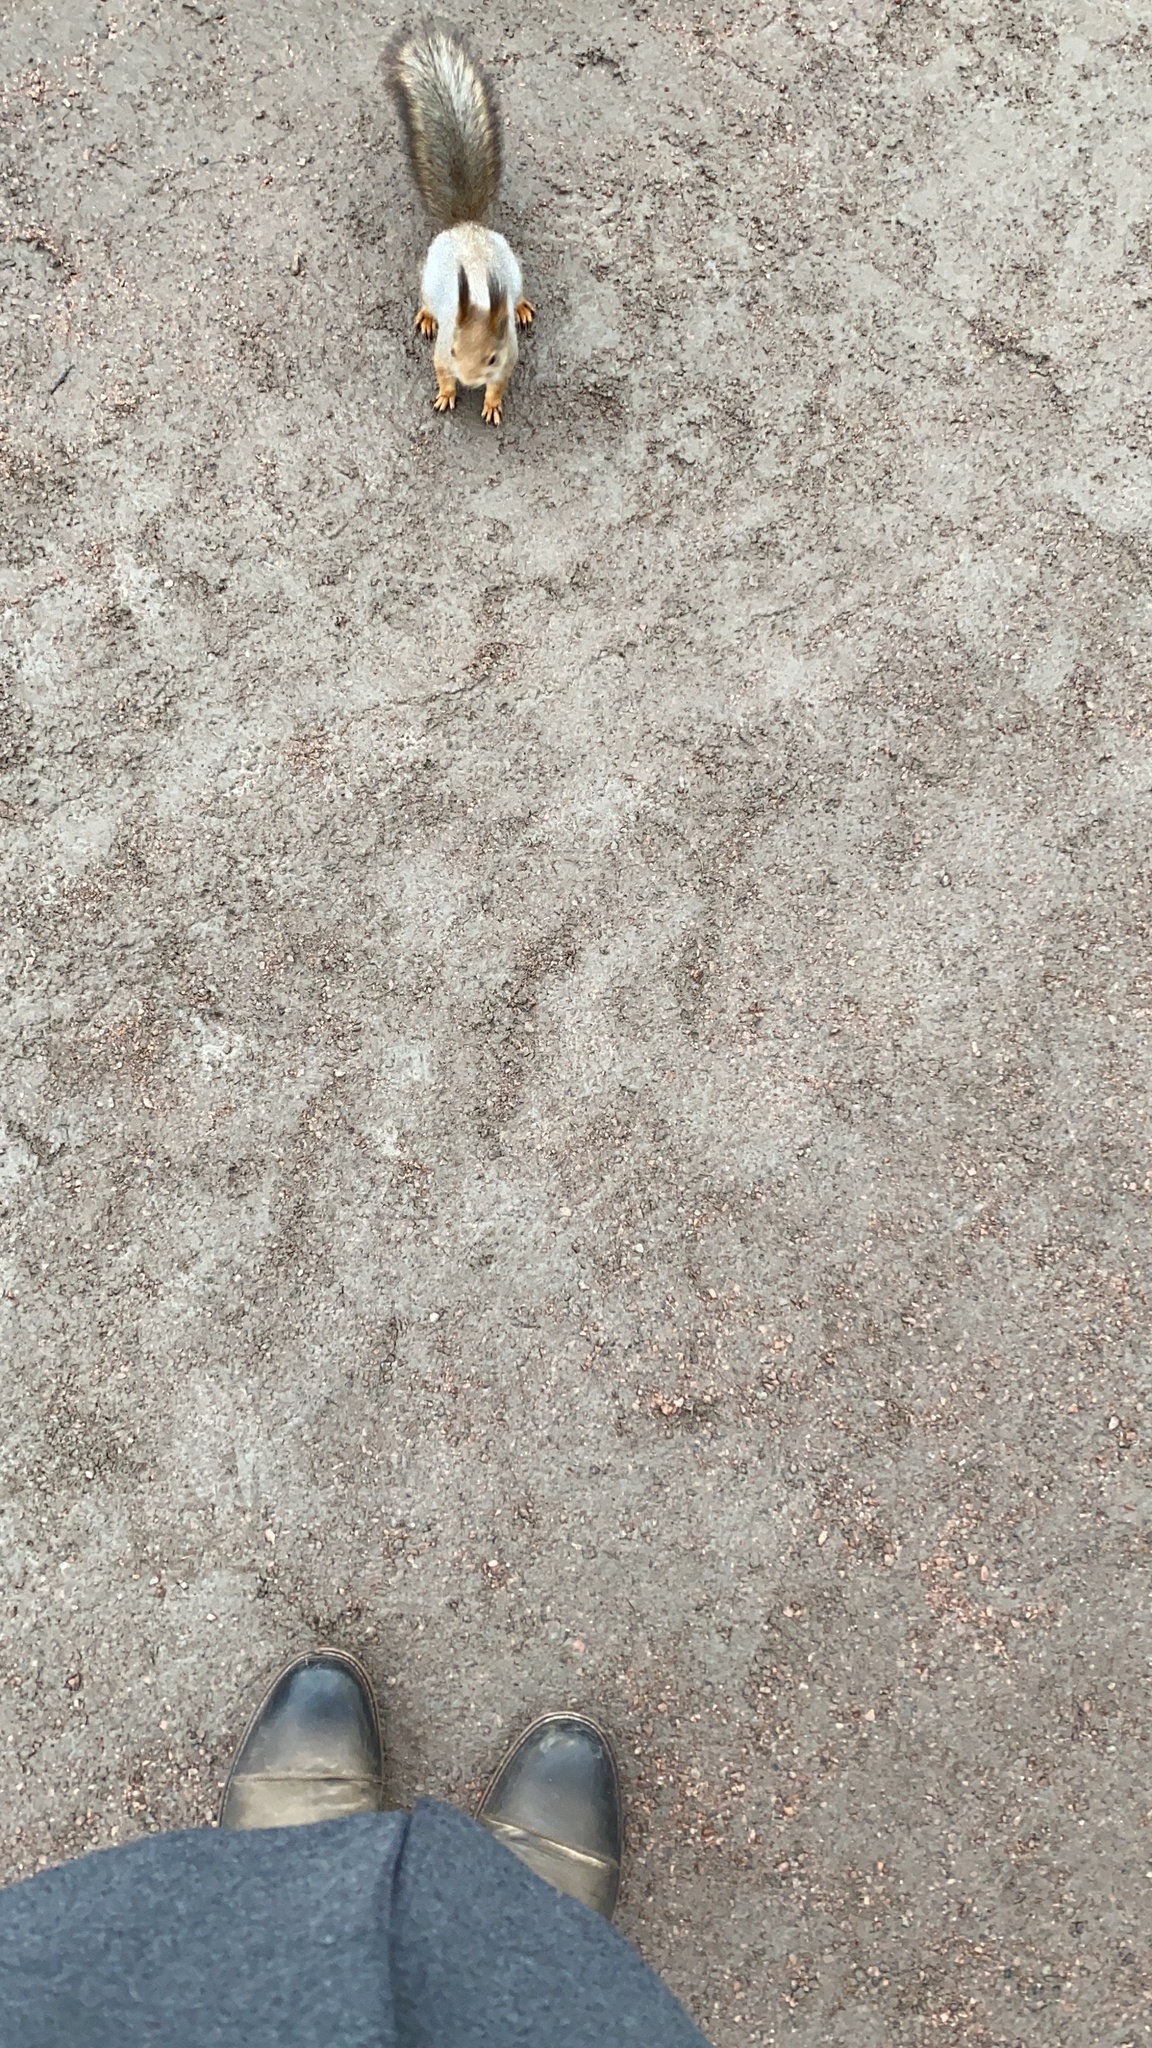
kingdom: Animalia
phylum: Chordata
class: Mammalia
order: Rodentia
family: Sciuridae
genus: Sciurus
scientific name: Sciurus vulgaris
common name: Eurasian red squirrel
